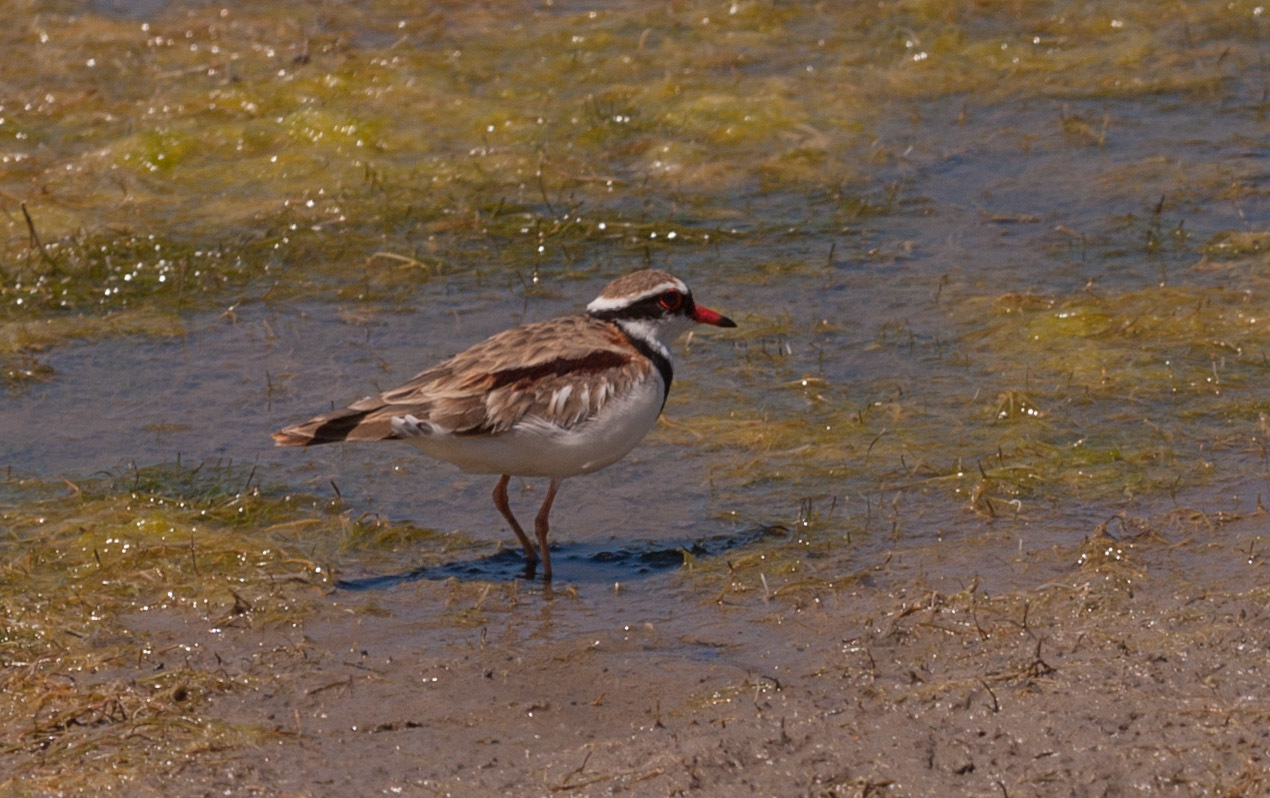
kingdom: Animalia
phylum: Chordata
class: Aves
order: Charadriiformes
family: Charadriidae
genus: Elseyornis
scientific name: Elseyornis melanops
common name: Black-fronted dotterel
